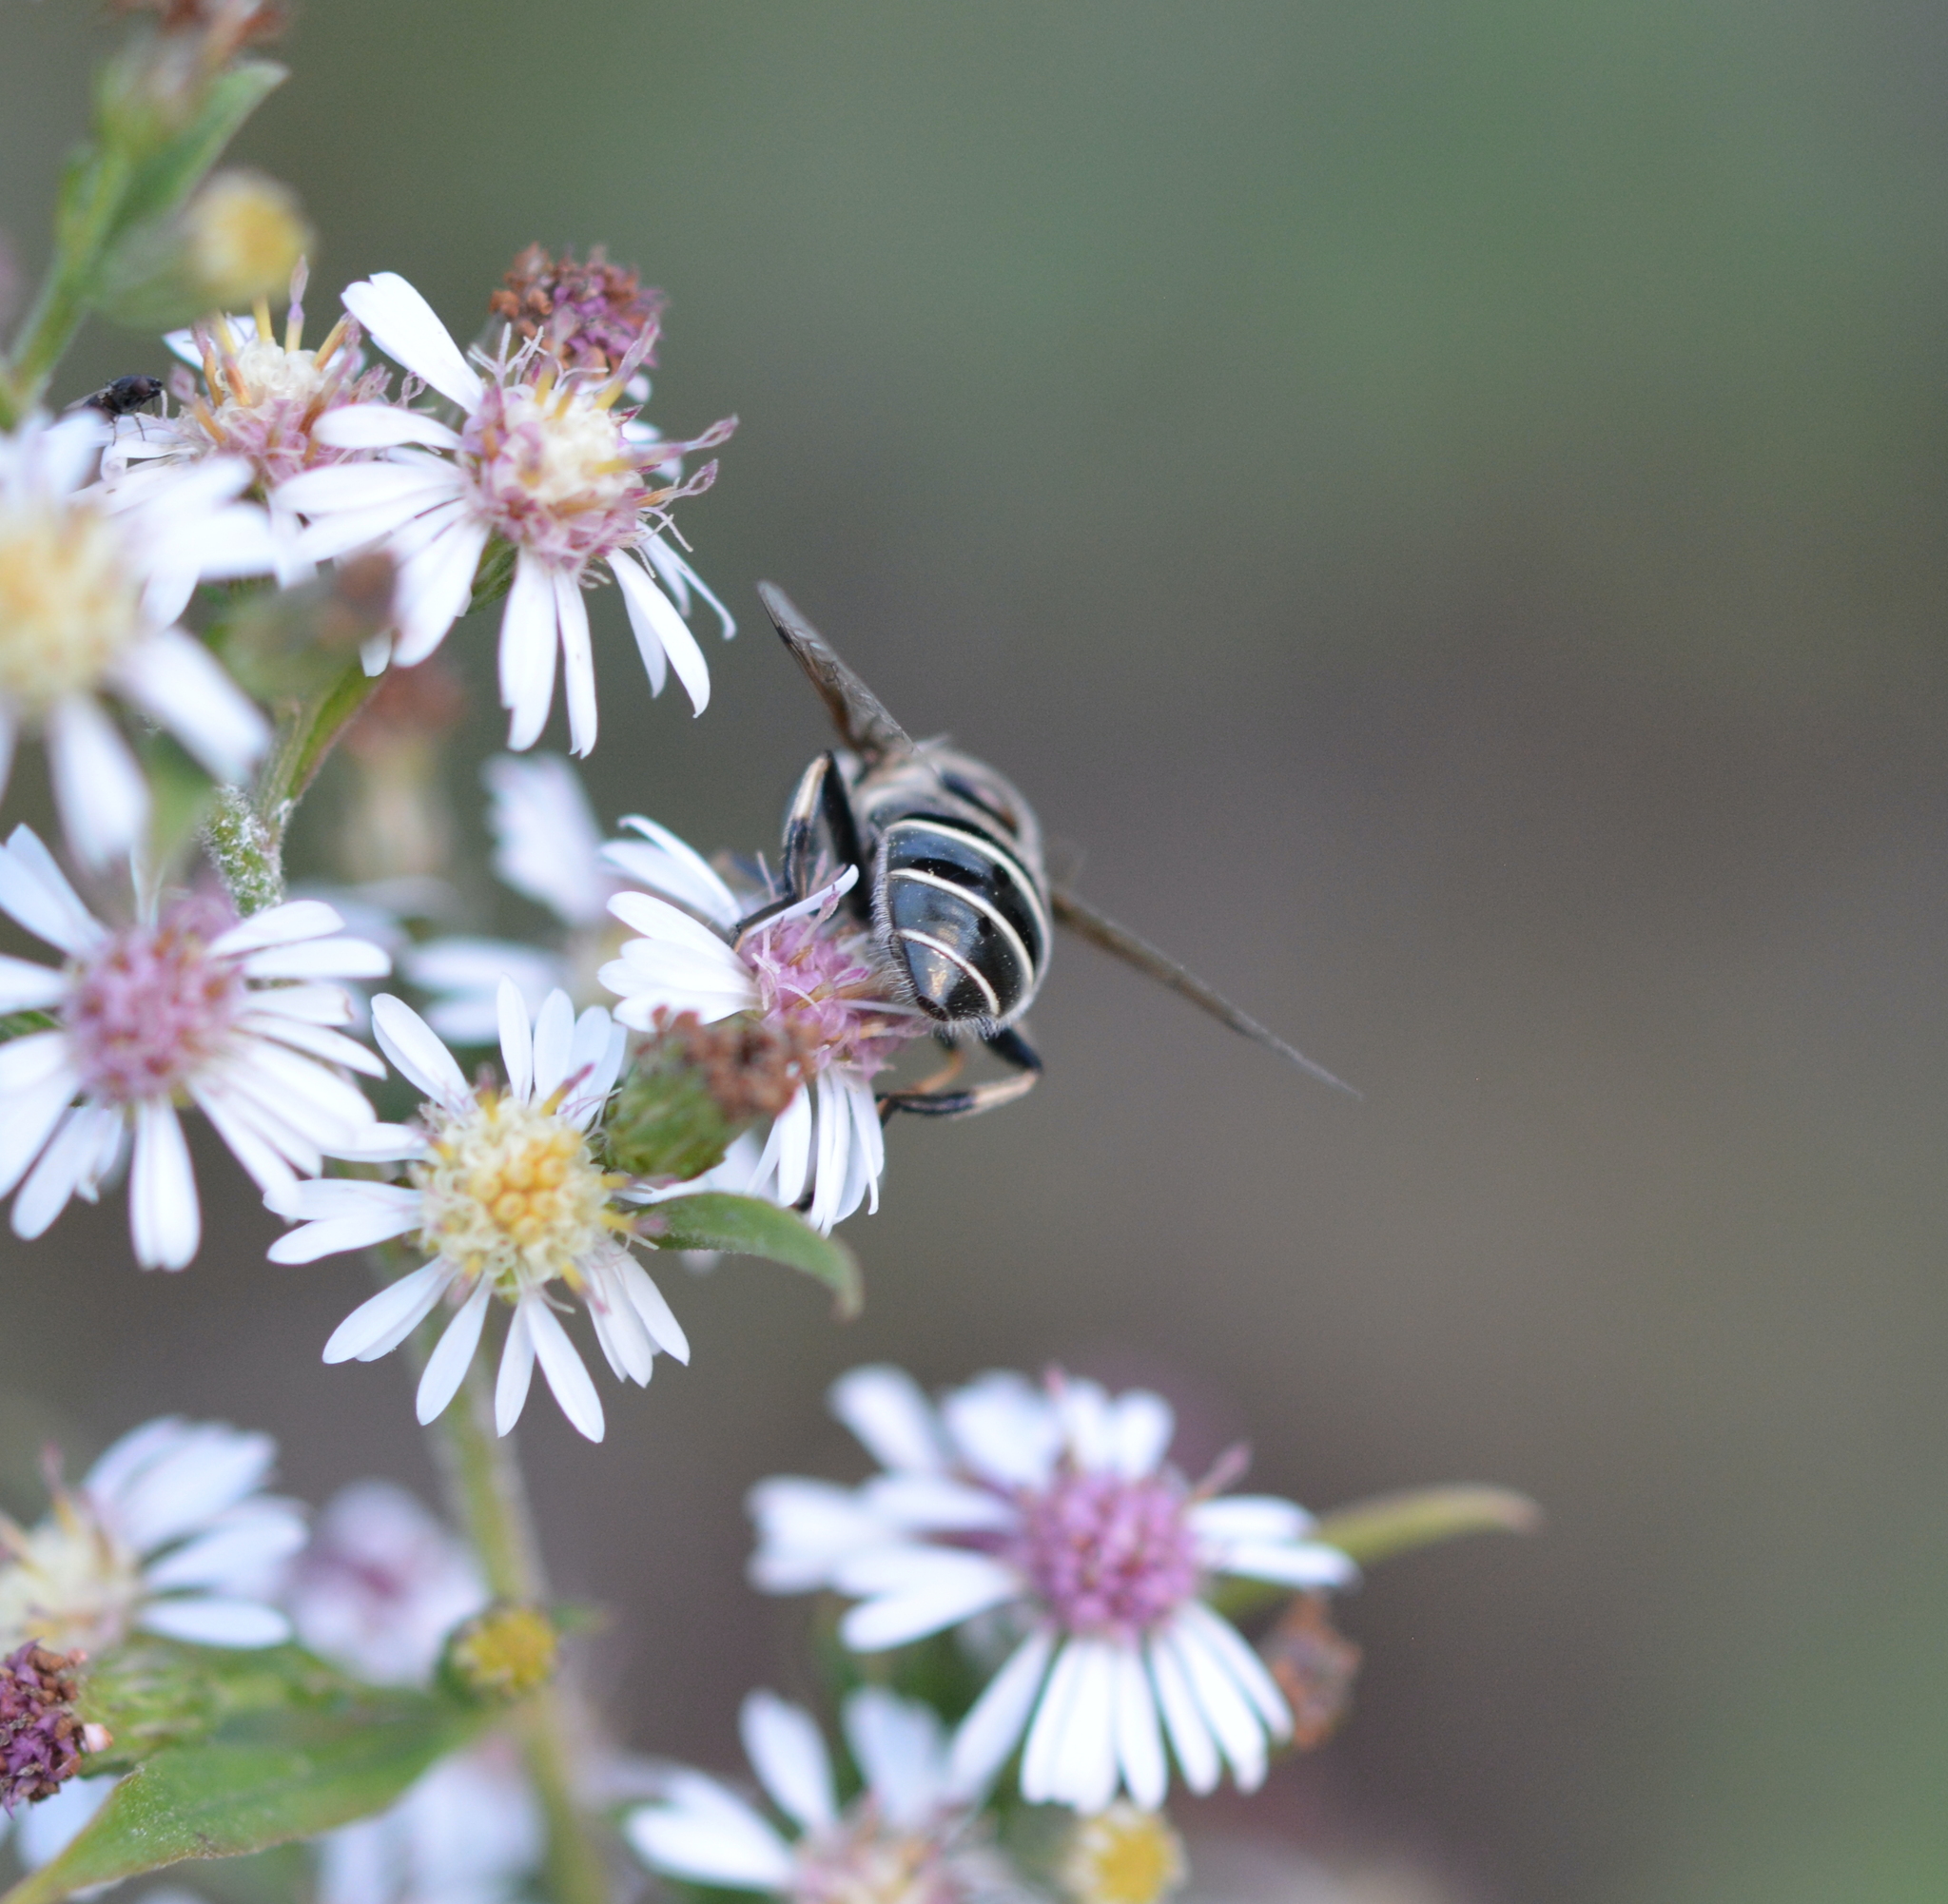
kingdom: Animalia
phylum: Arthropoda
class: Insecta
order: Diptera
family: Syrphidae
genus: Eristalis
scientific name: Eristalis dimidiata
